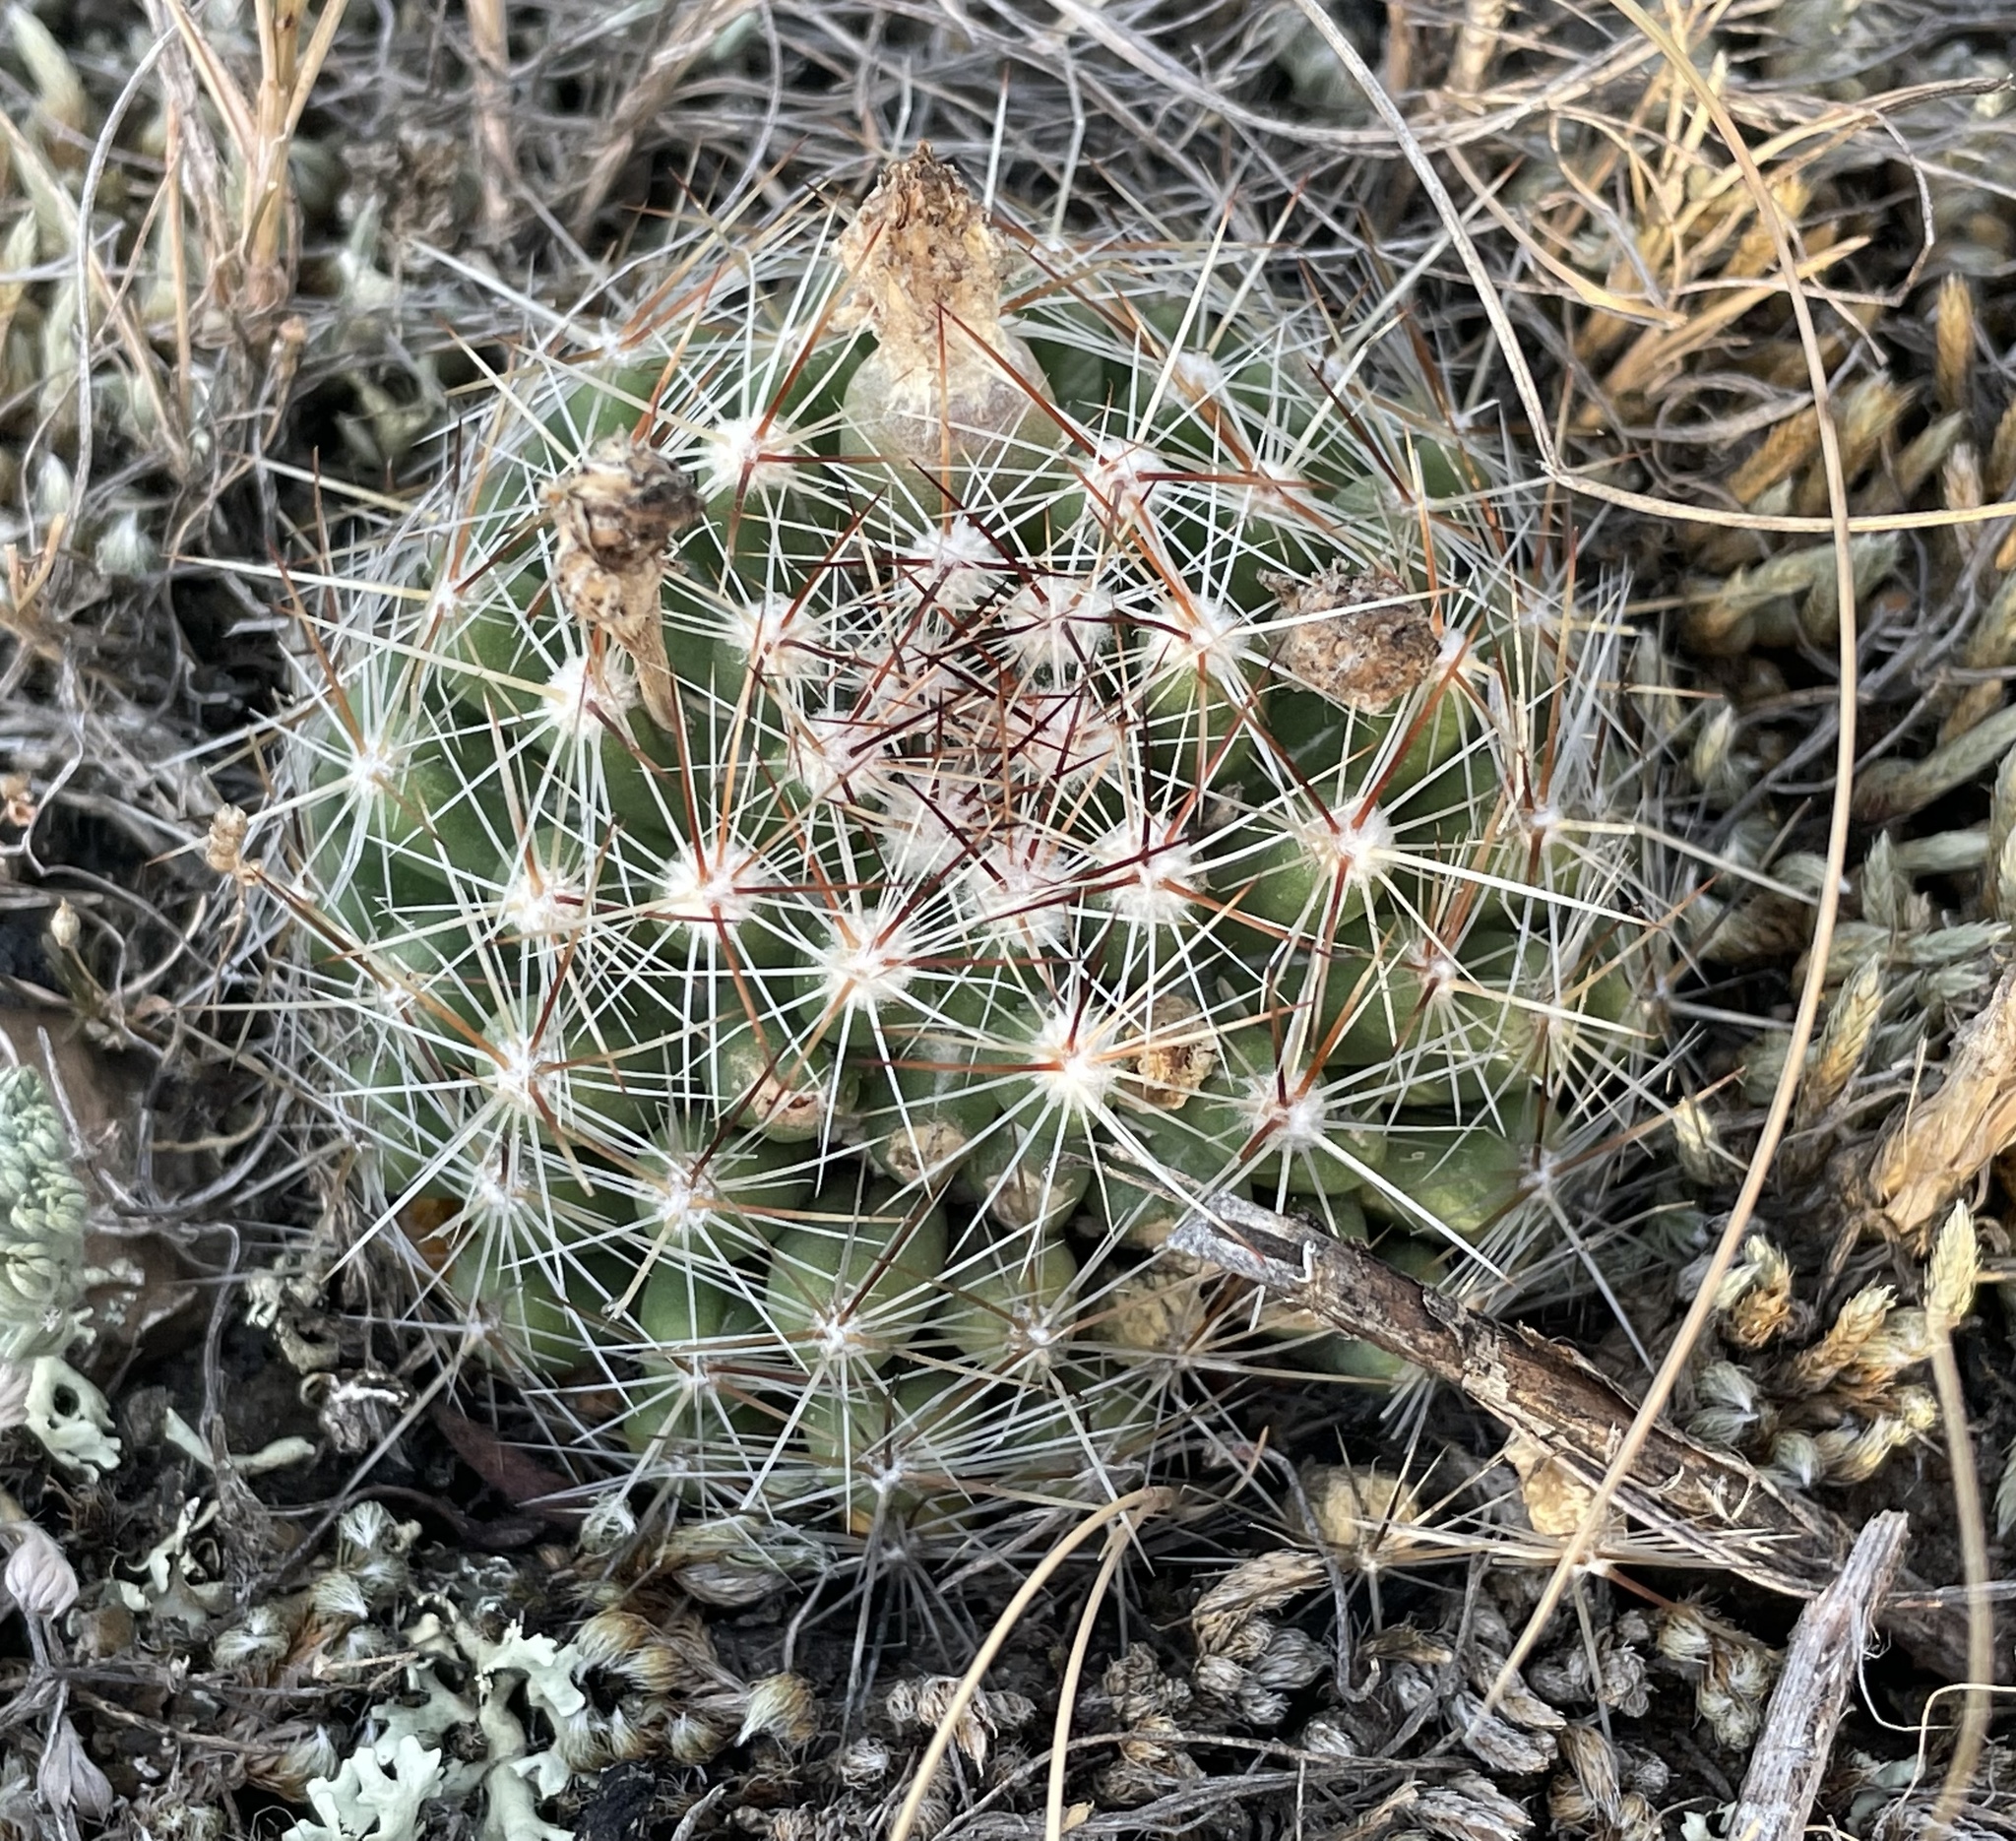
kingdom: Plantae
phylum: Tracheophyta
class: Magnoliopsida
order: Caryophyllales
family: Cactaceae
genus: Pelecyphora
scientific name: Pelecyphora vivipara
